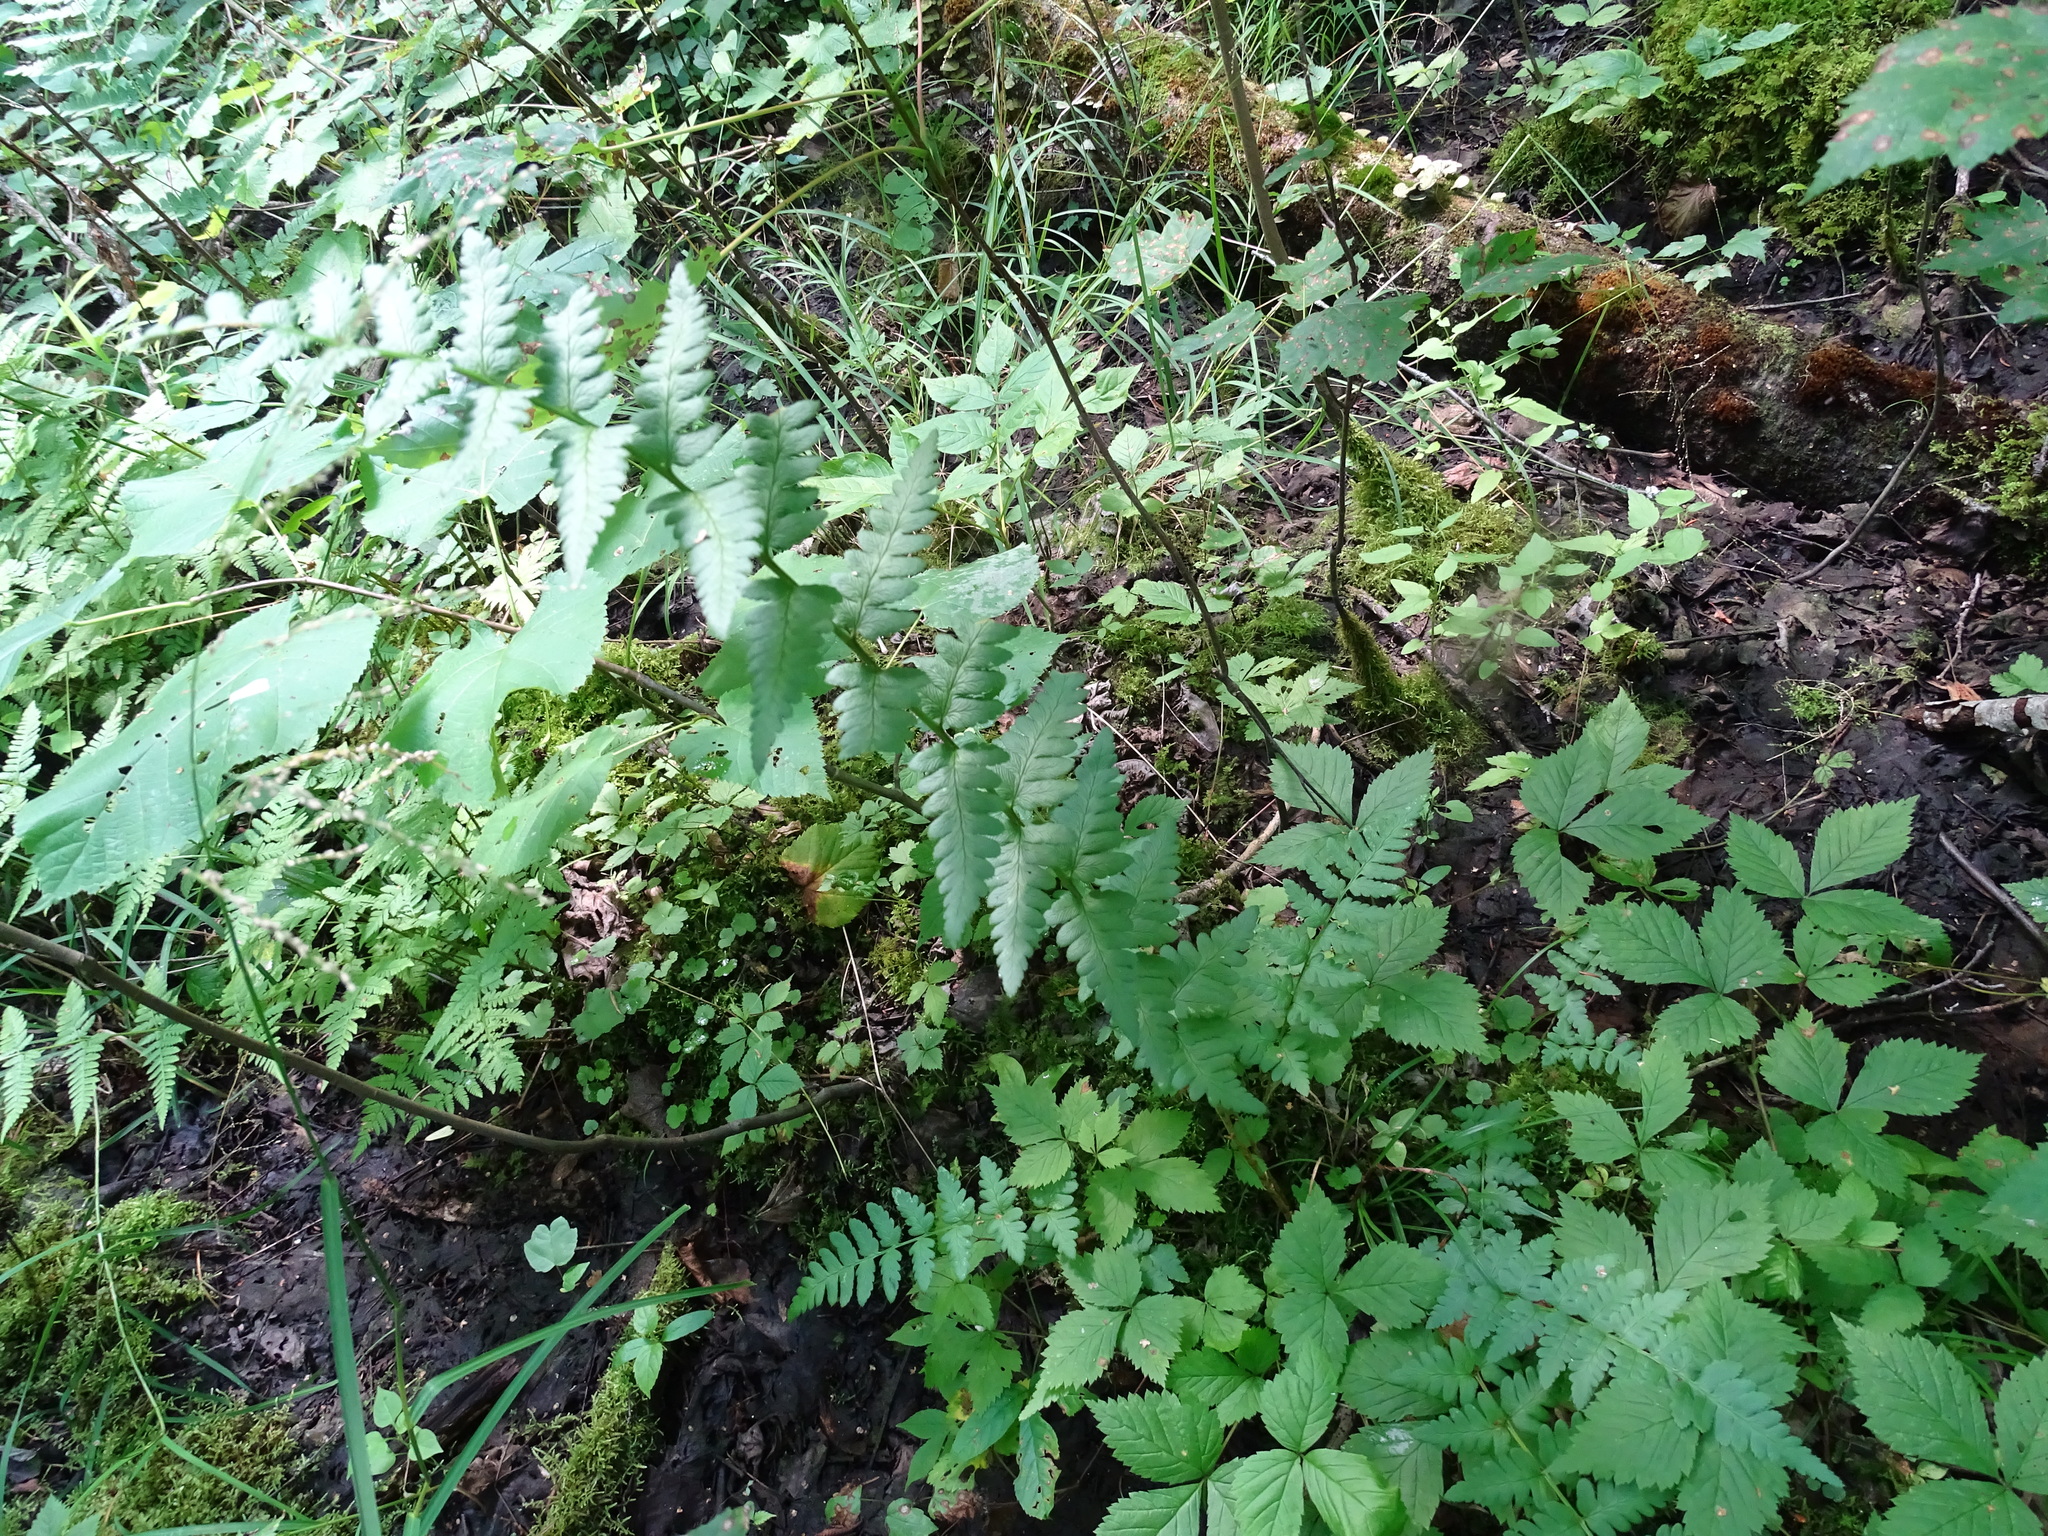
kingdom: Plantae
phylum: Tracheophyta
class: Polypodiopsida
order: Polypodiales
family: Dryopteridaceae
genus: Dryopteris
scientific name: Dryopteris cristata
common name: Crested wood fern
